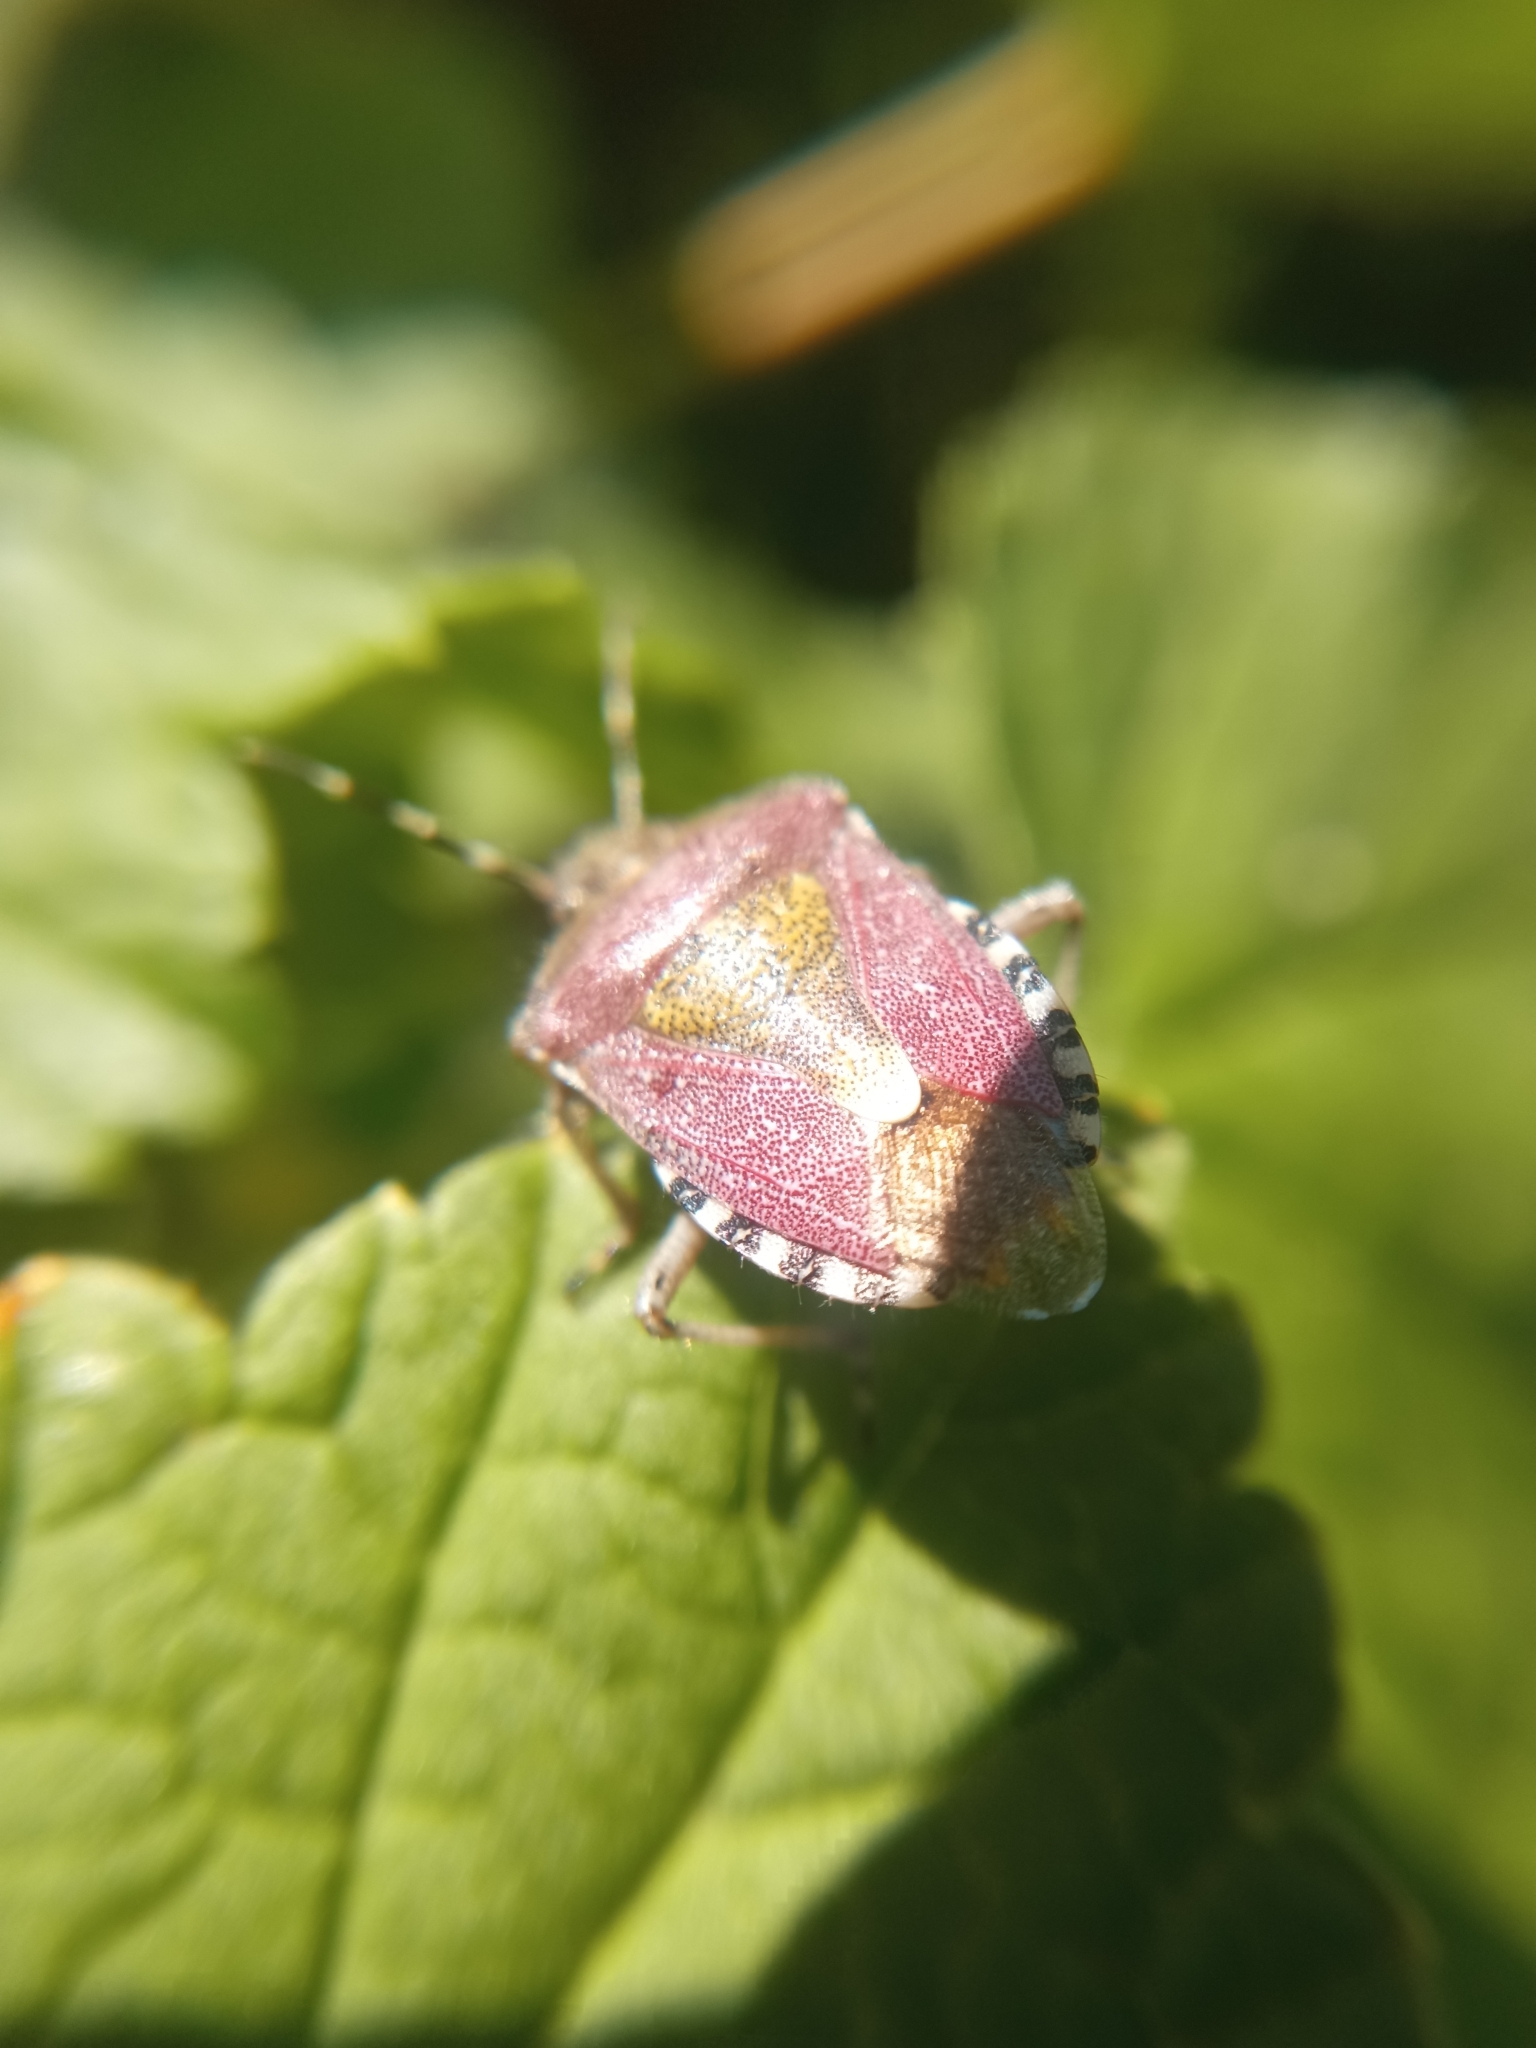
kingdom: Animalia
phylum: Arthropoda
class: Insecta
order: Hemiptera
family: Pentatomidae
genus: Dolycoris
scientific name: Dolycoris baccarum
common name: Sloe bug
